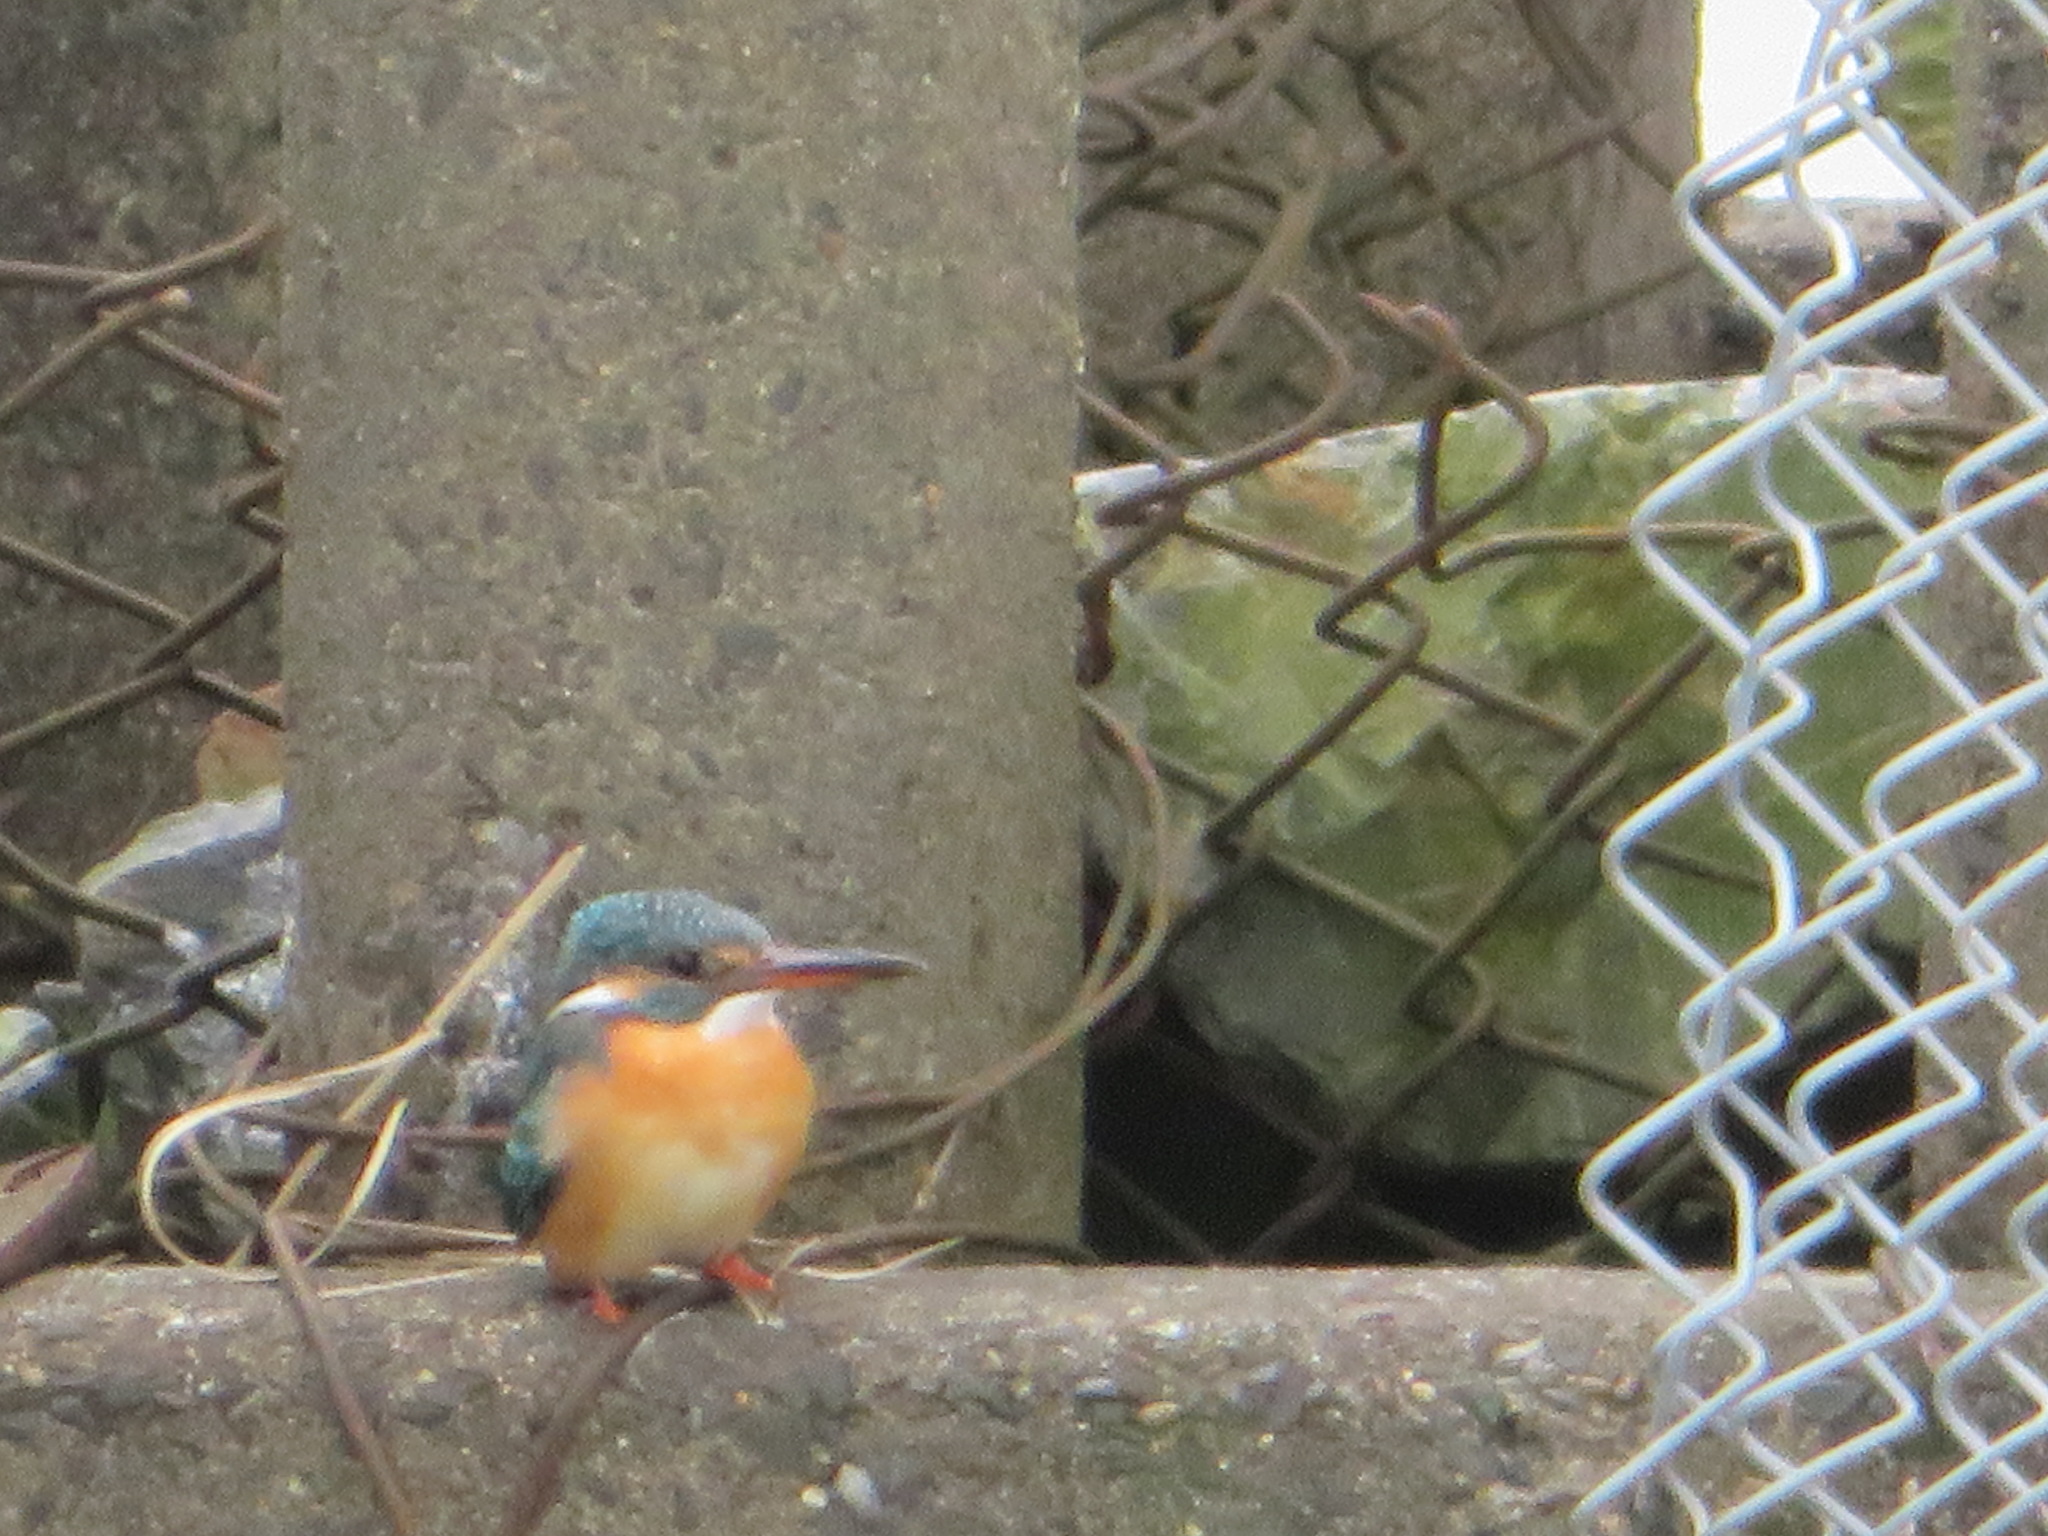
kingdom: Animalia
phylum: Chordata
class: Aves
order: Coraciiformes
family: Alcedinidae
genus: Alcedo
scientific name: Alcedo atthis
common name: Common kingfisher
